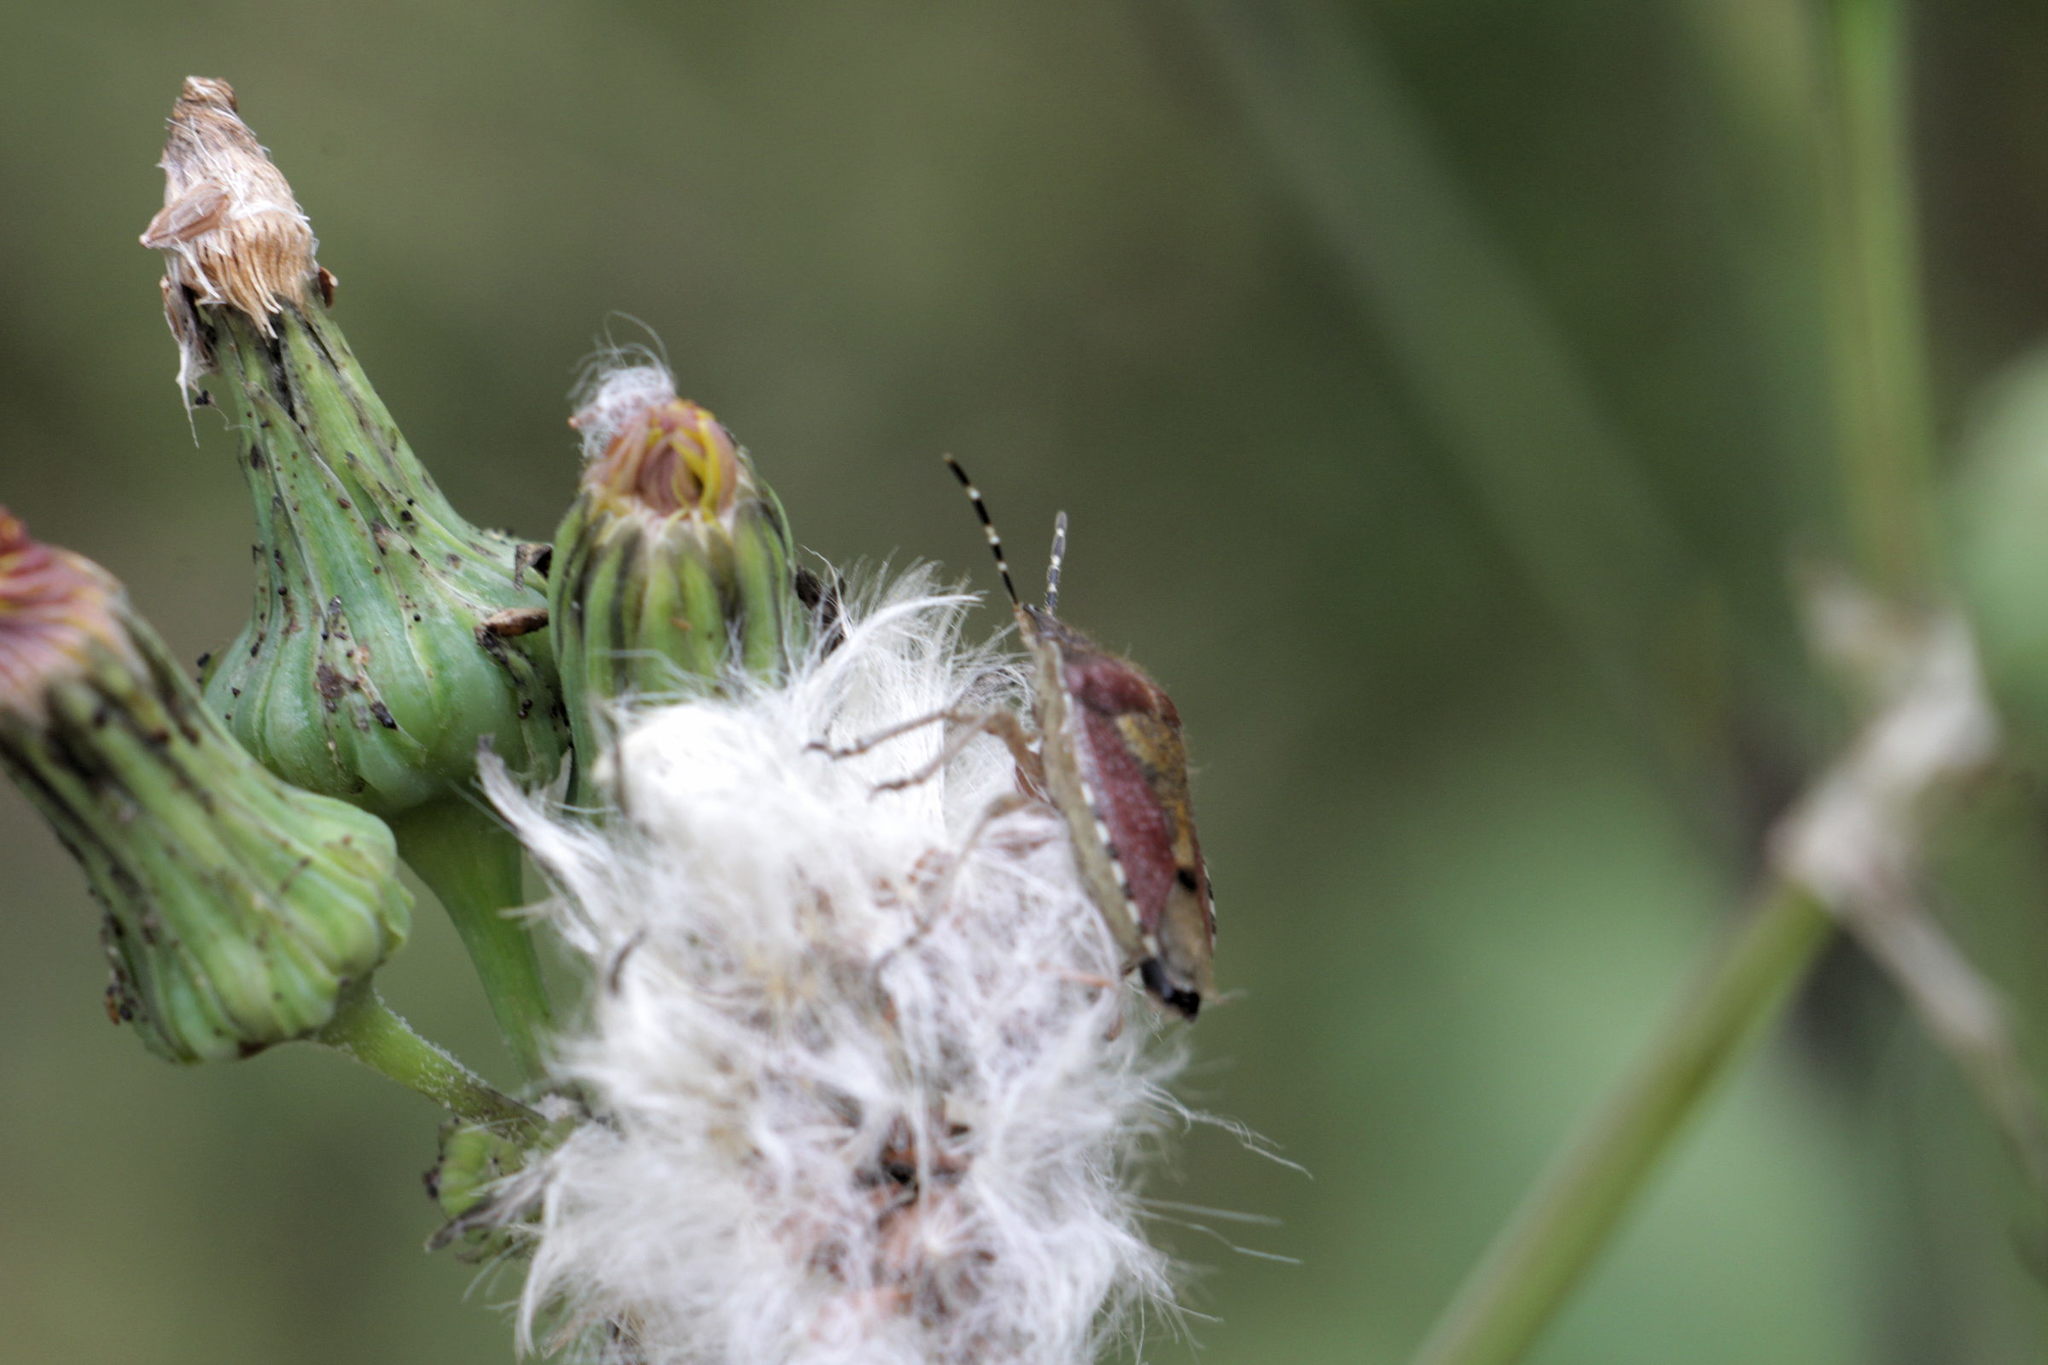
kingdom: Animalia
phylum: Arthropoda
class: Insecta
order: Hemiptera
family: Pentatomidae
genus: Dolycoris
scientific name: Dolycoris baccarum
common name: Sloe bug
